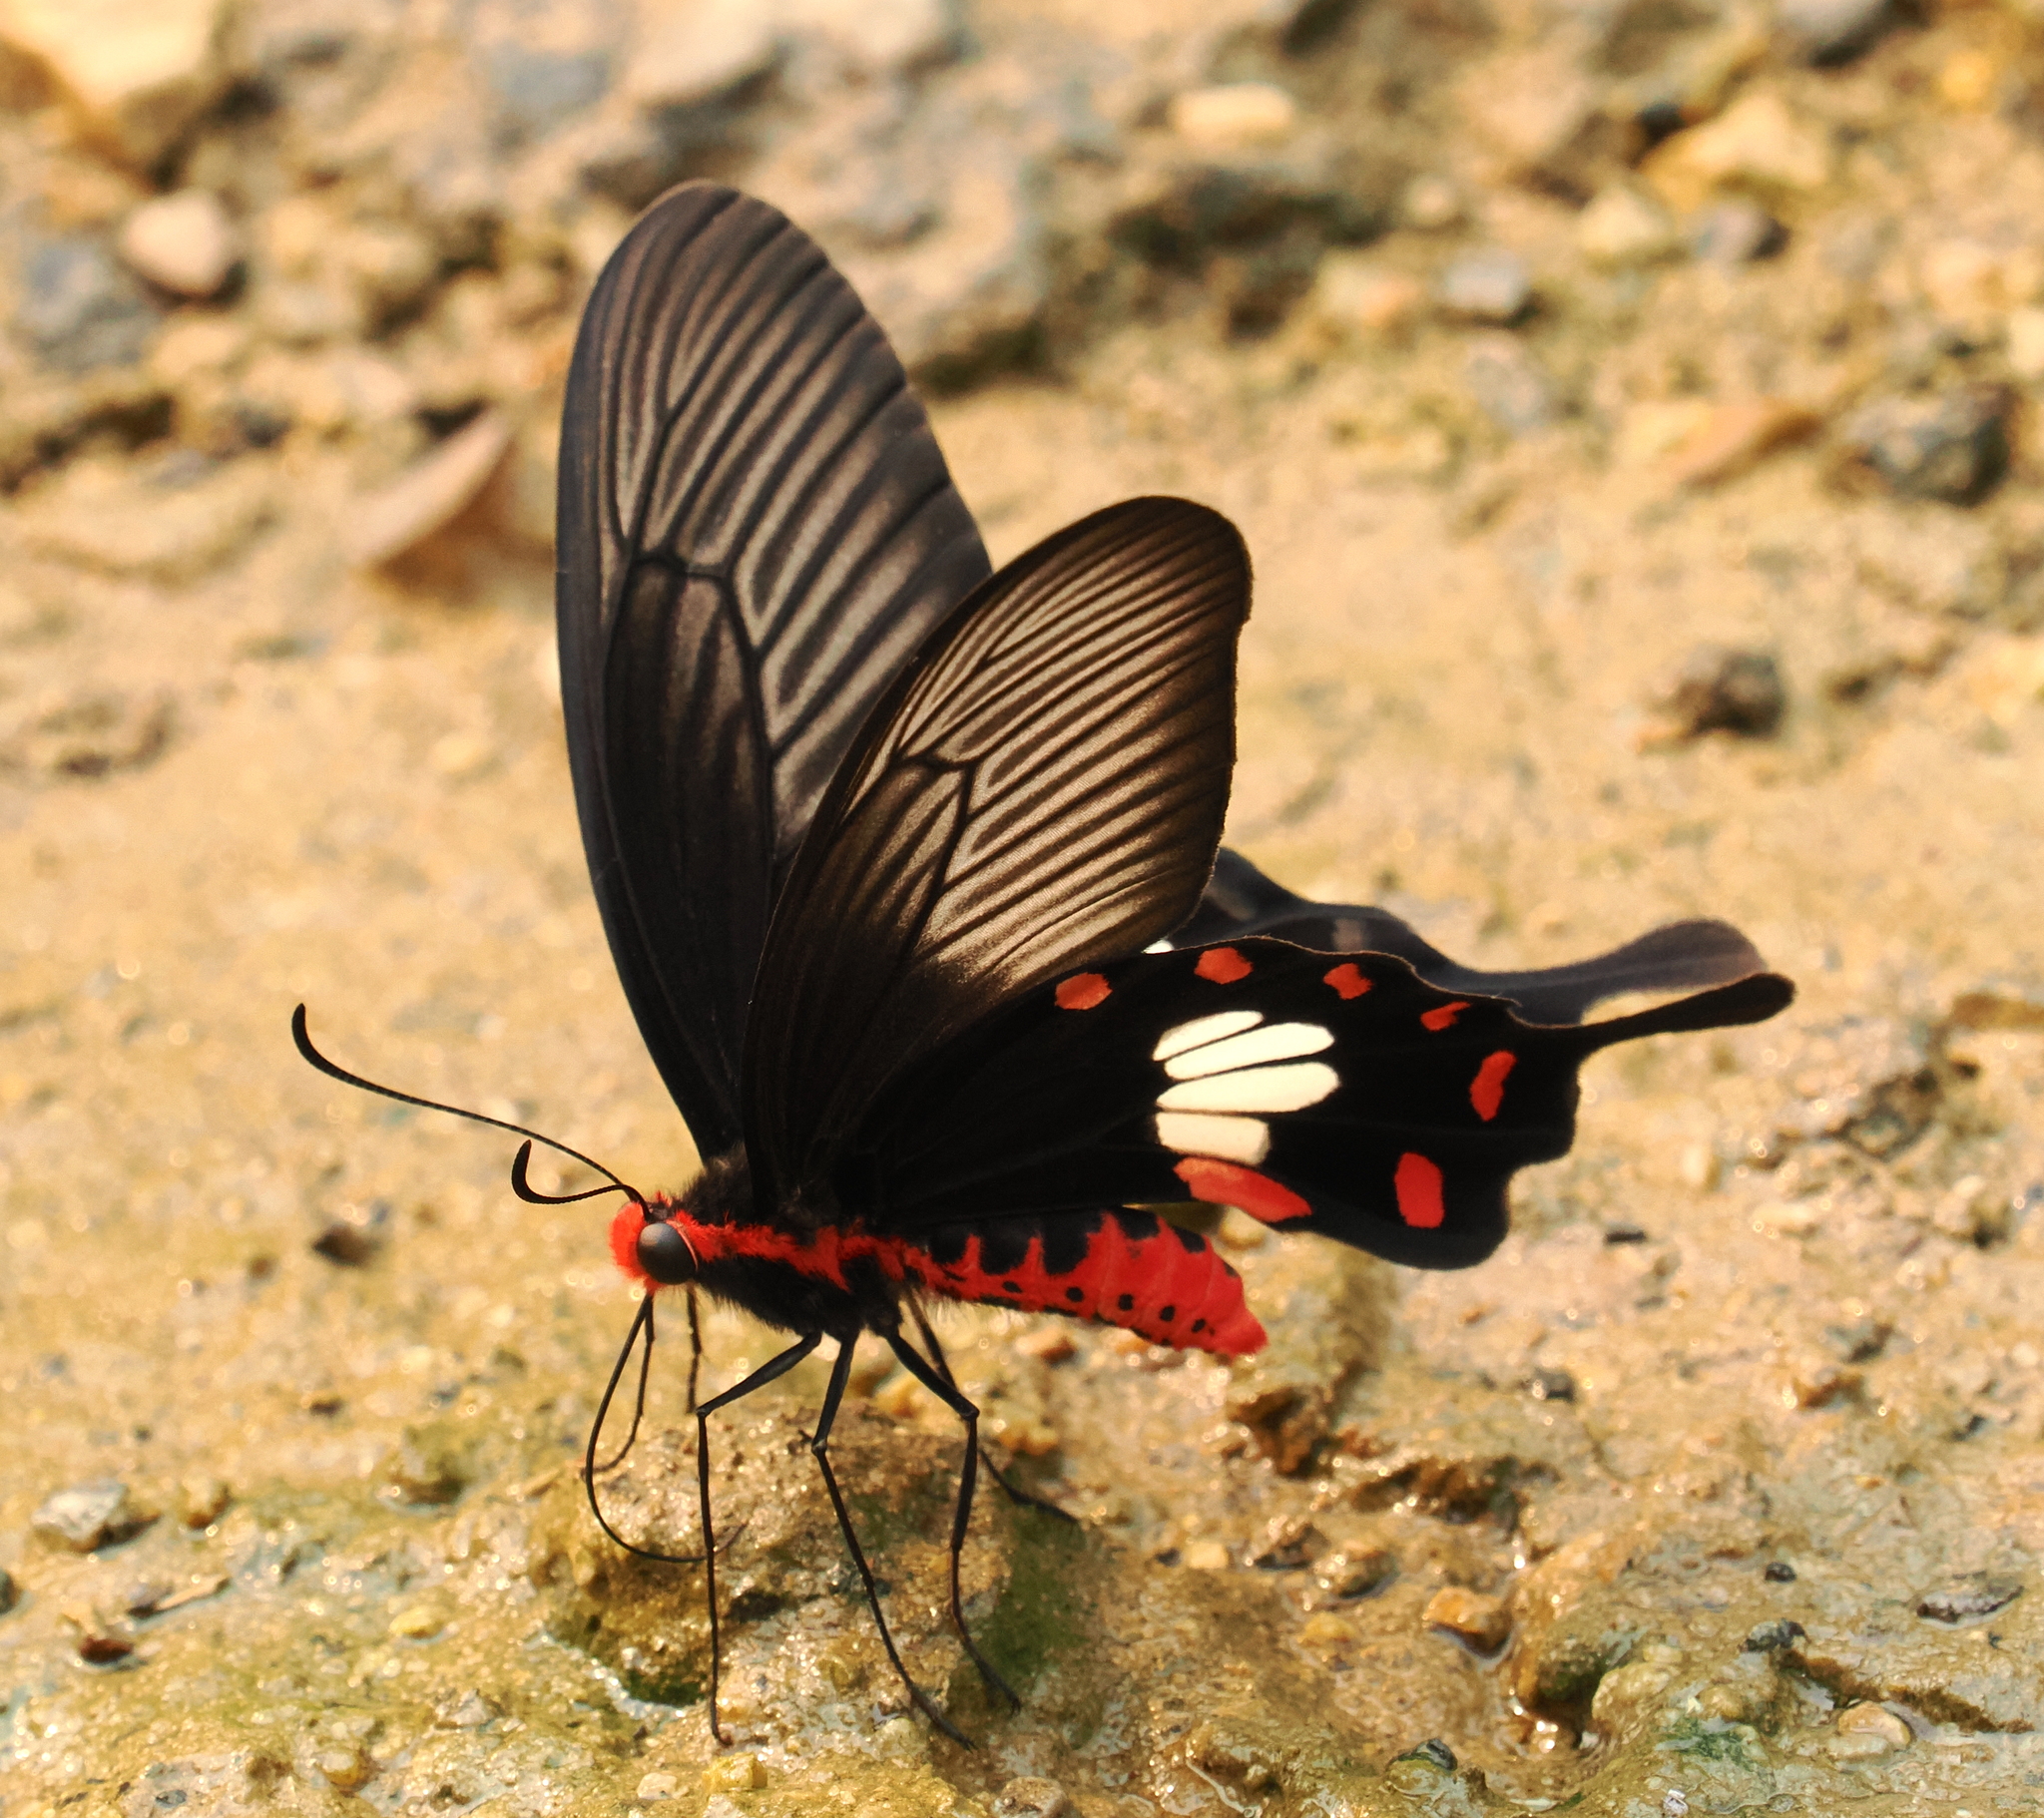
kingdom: Animalia
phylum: Arthropoda
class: Insecta
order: Lepidoptera
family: Papilionidae
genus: Pachliopta
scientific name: Pachliopta aristolochiae
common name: Common rose
